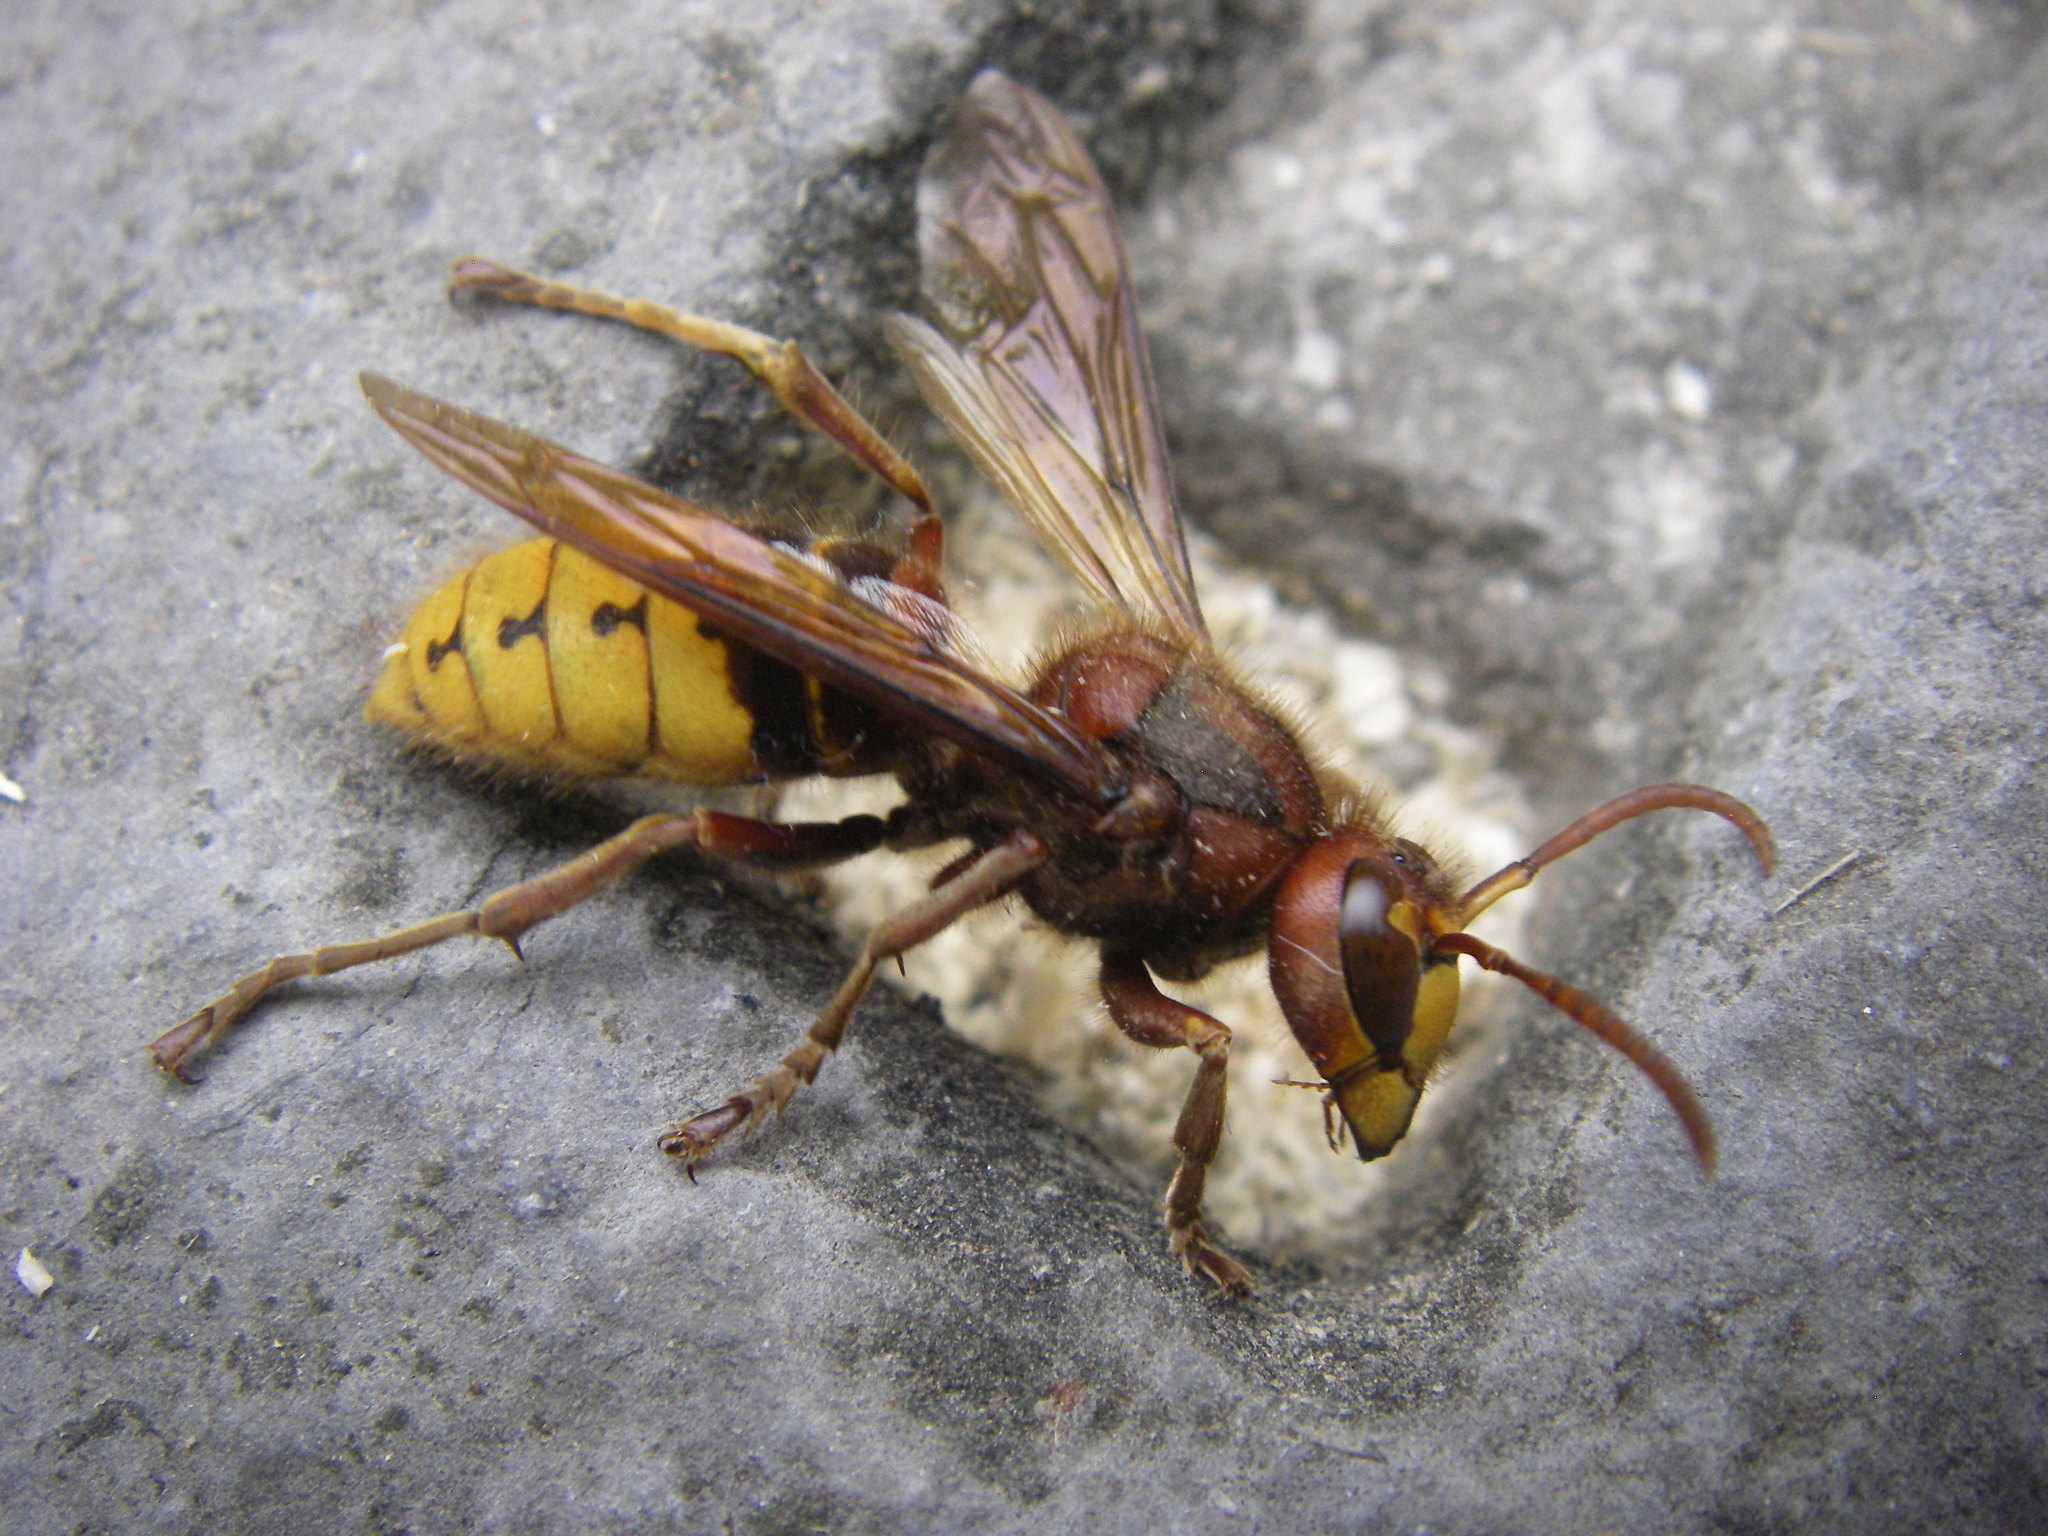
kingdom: Animalia
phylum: Arthropoda
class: Insecta
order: Hymenoptera
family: Vespidae
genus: Vespa
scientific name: Vespa crabro
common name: Hornet
